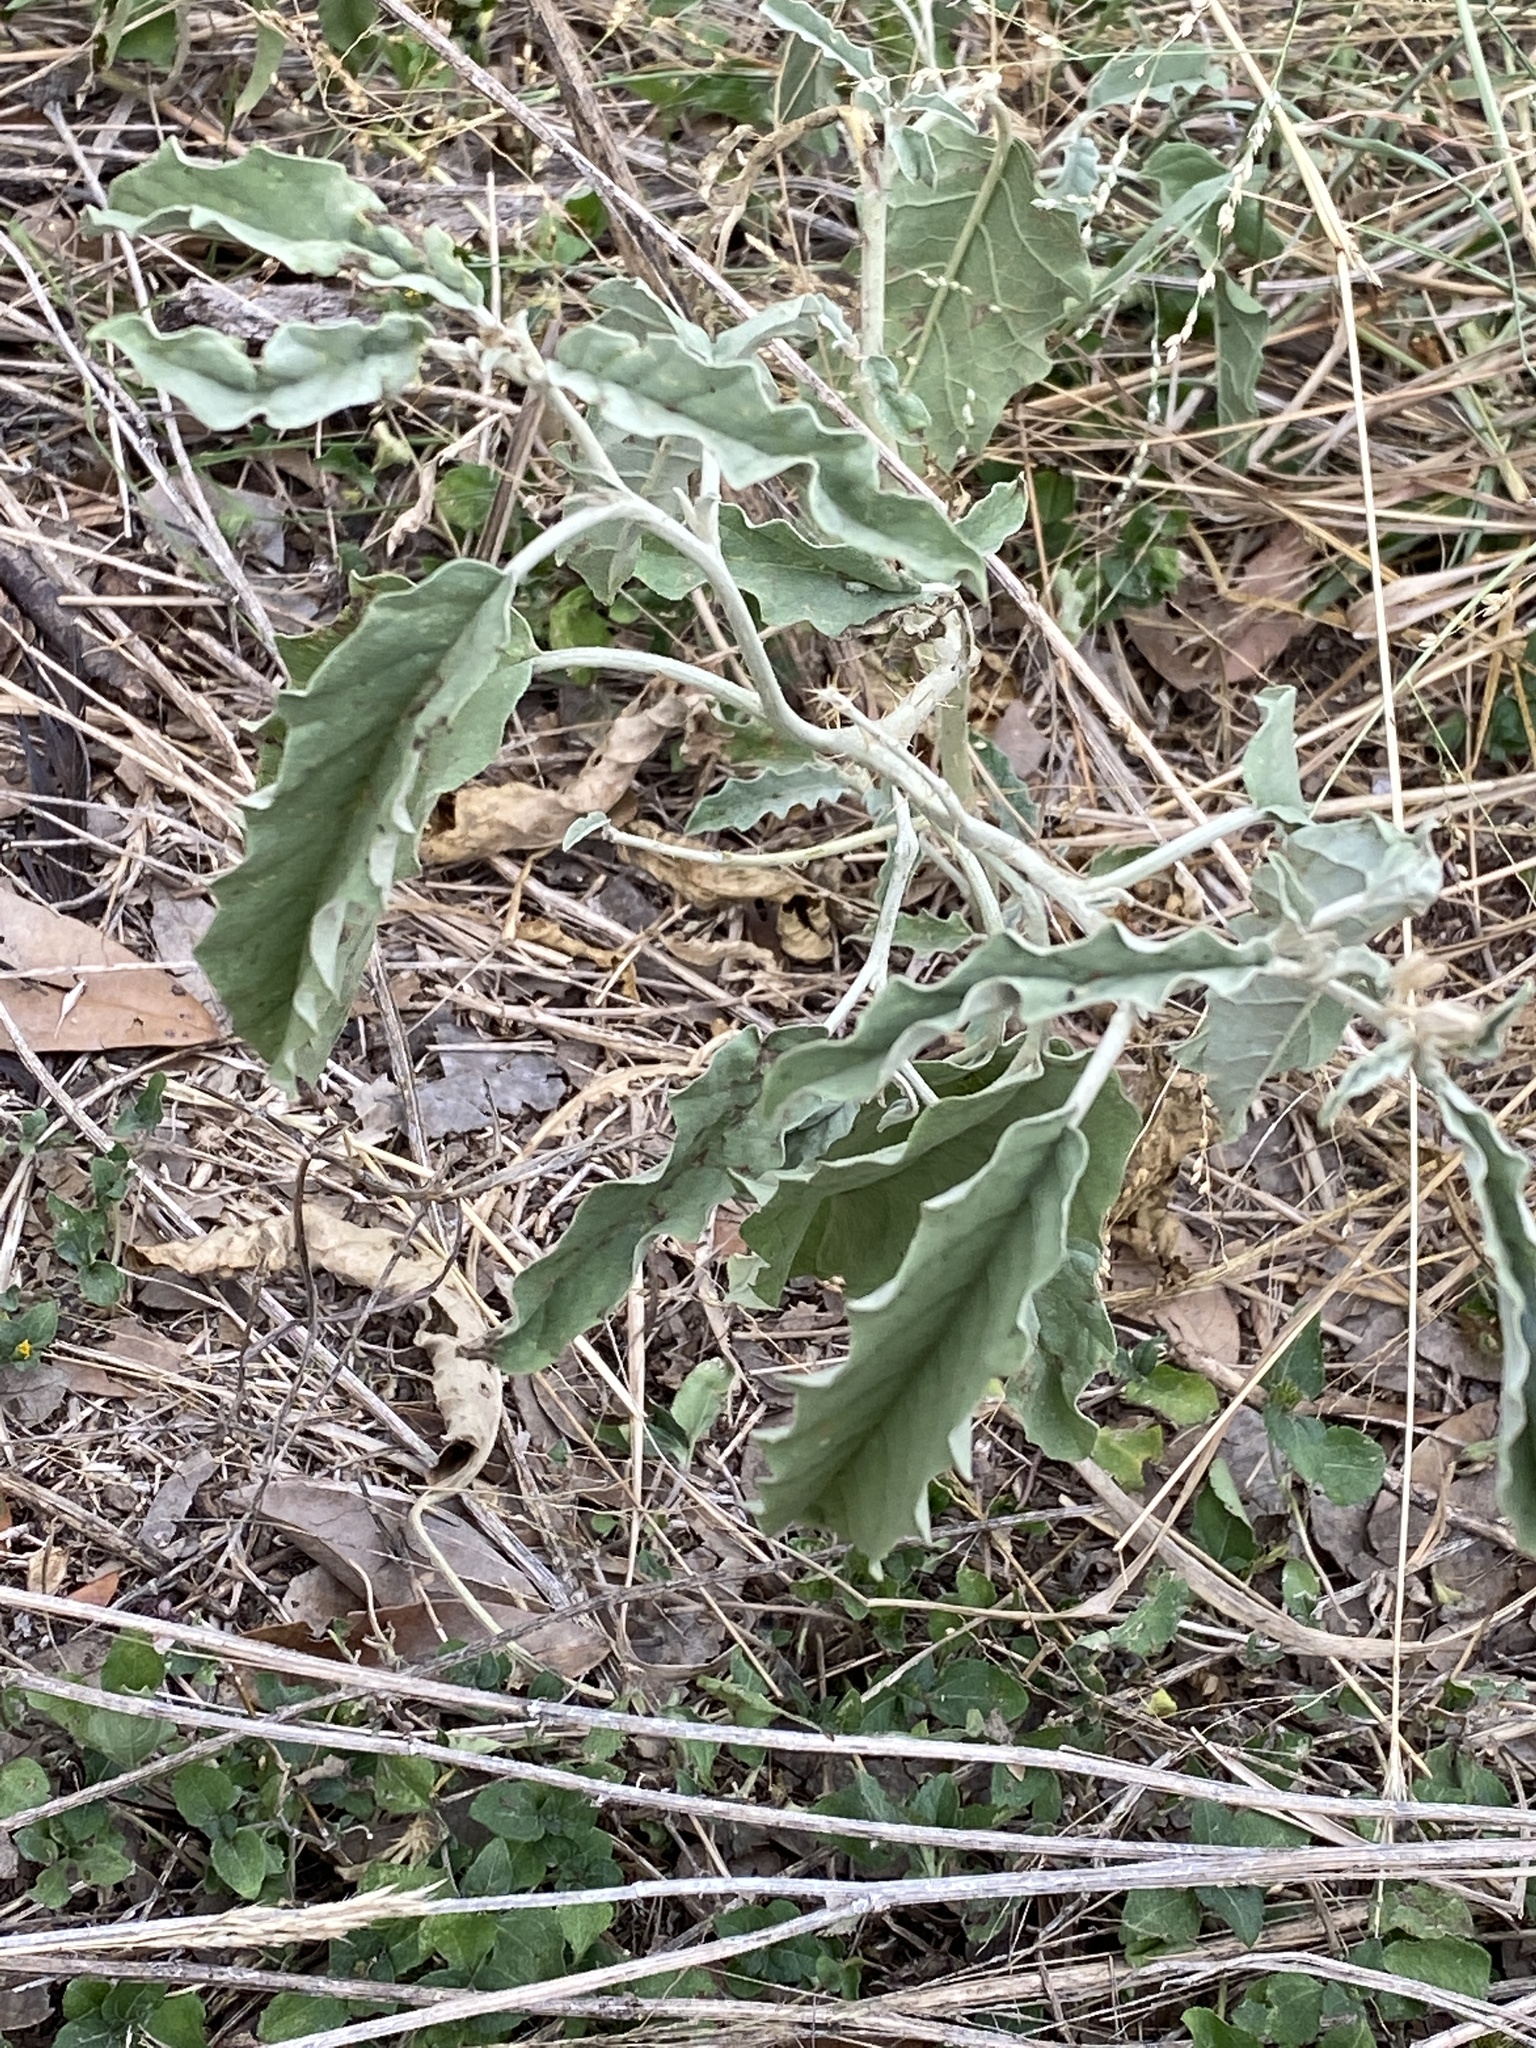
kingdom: Plantae
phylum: Tracheophyta
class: Magnoliopsida
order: Solanales
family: Solanaceae
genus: Solanum
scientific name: Solanum dimidiatum
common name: Carolina horse-nettle
